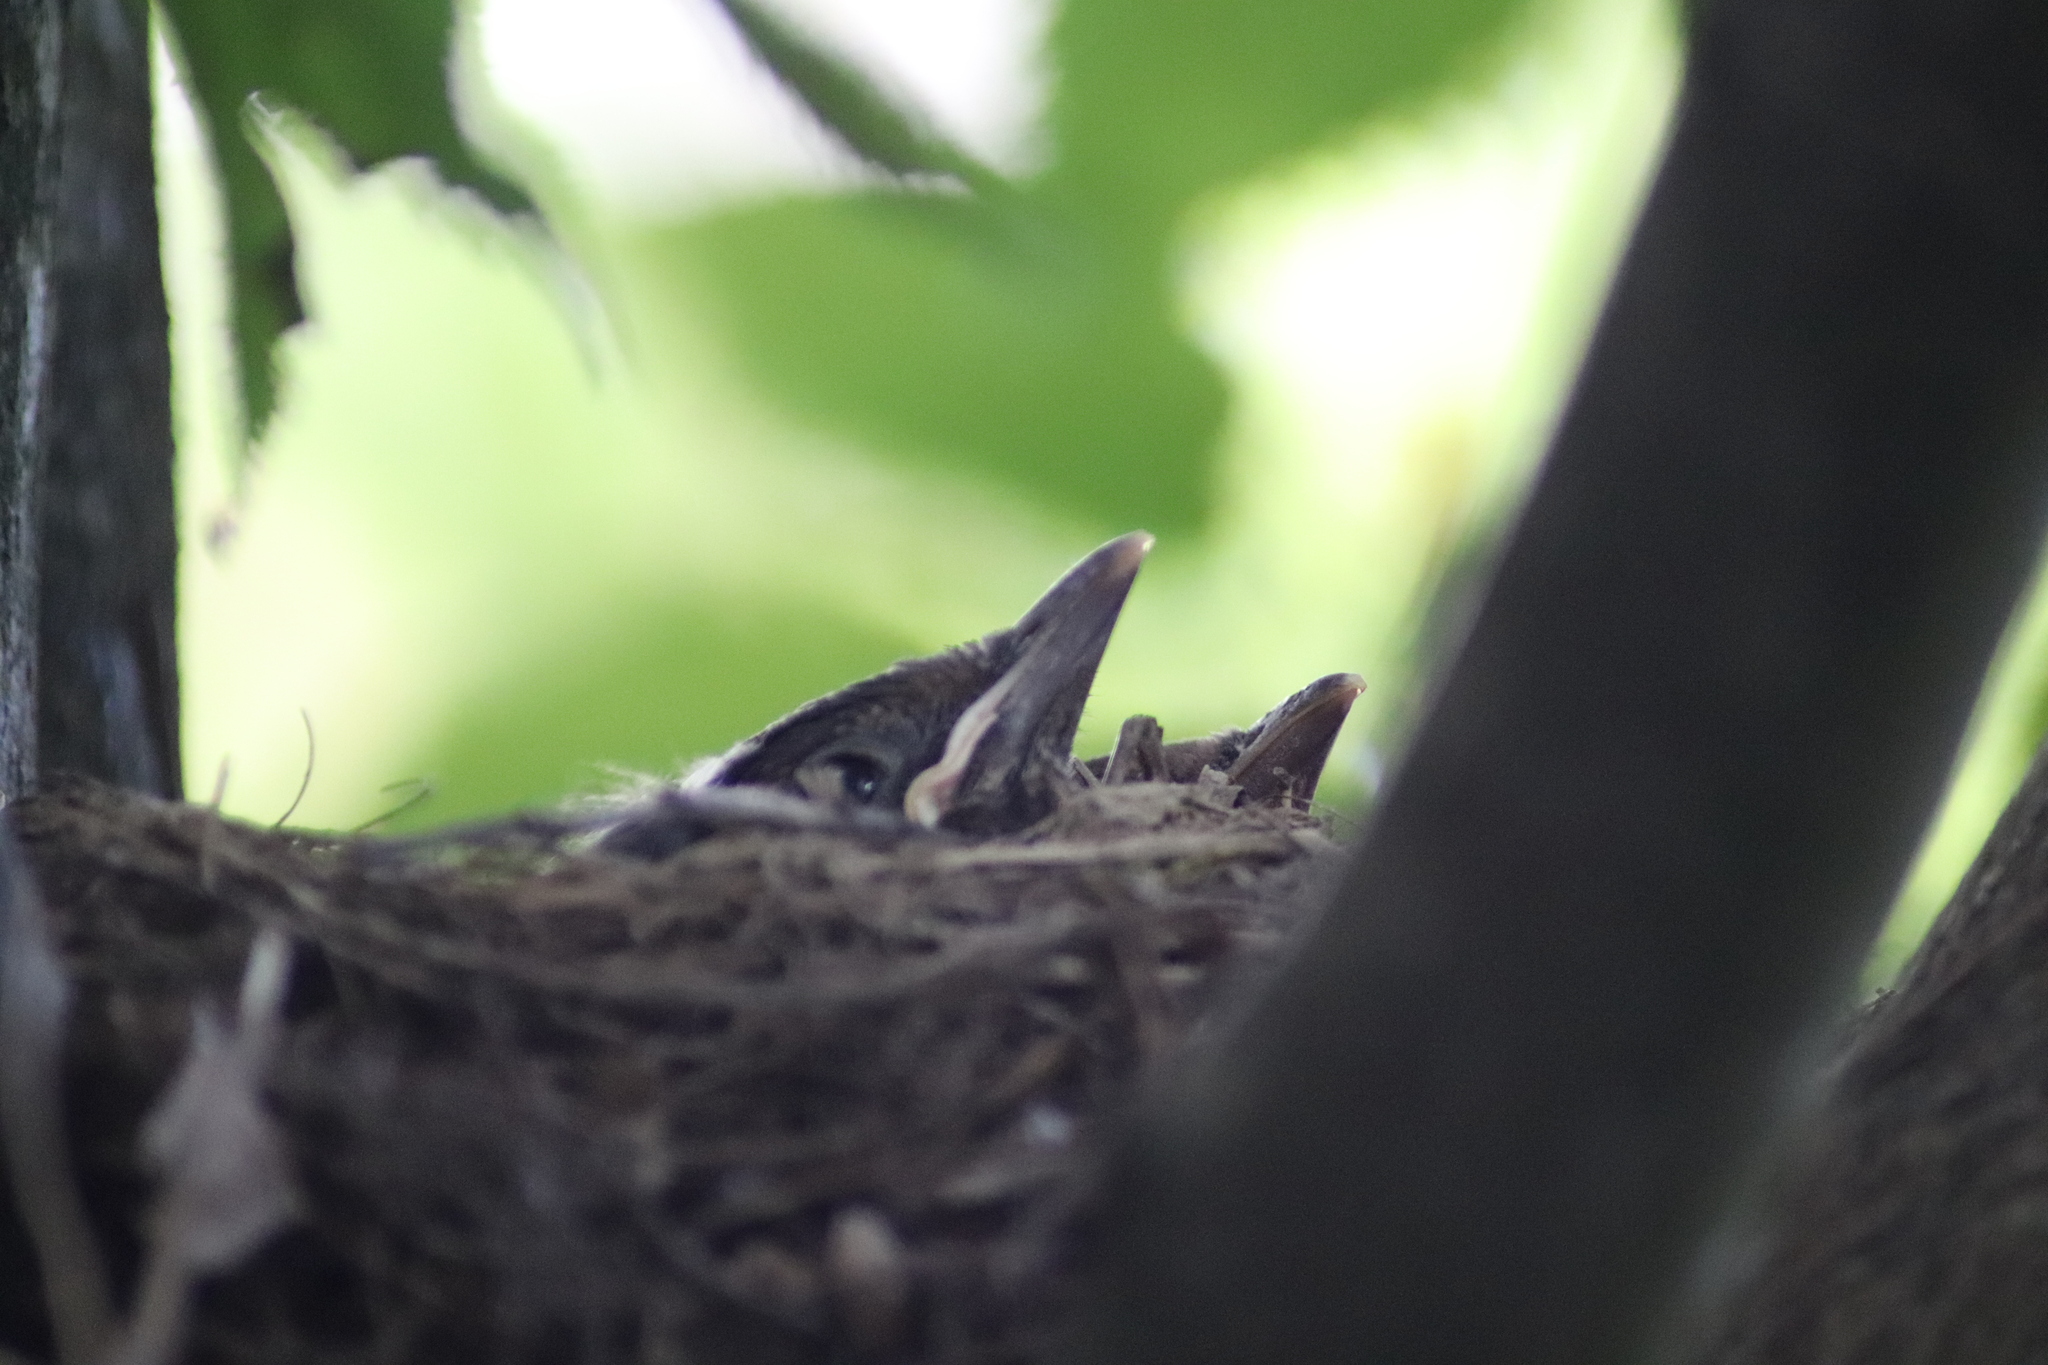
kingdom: Animalia
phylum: Chordata
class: Aves
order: Passeriformes
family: Turdidae
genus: Turdus
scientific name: Turdus merula
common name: Common blackbird
